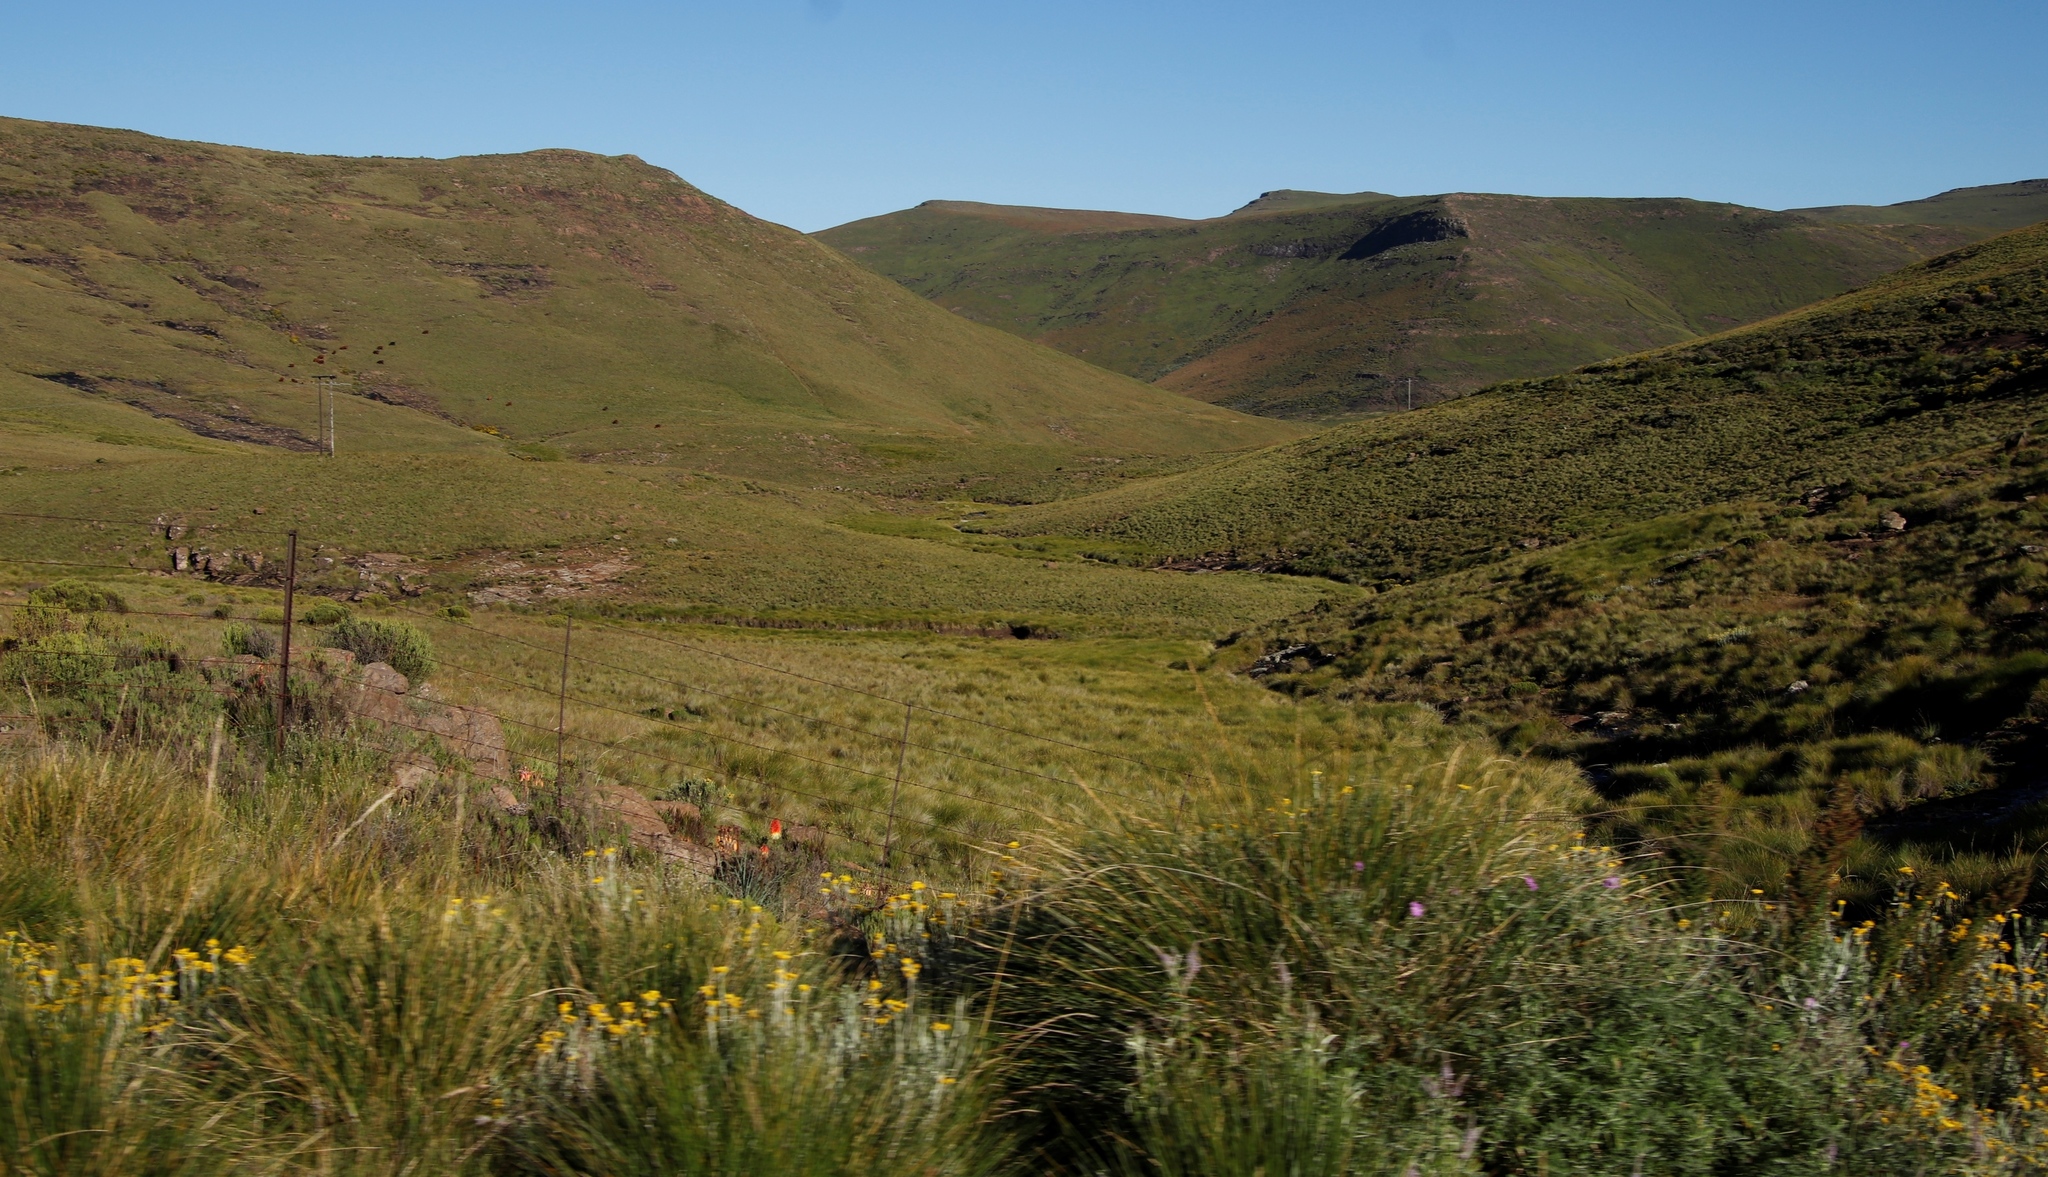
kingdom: Plantae
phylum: Tracheophyta
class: Liliopsida
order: Asparagales
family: Asphodelaceae
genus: Kniphofia
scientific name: Kniphofia caulescens
